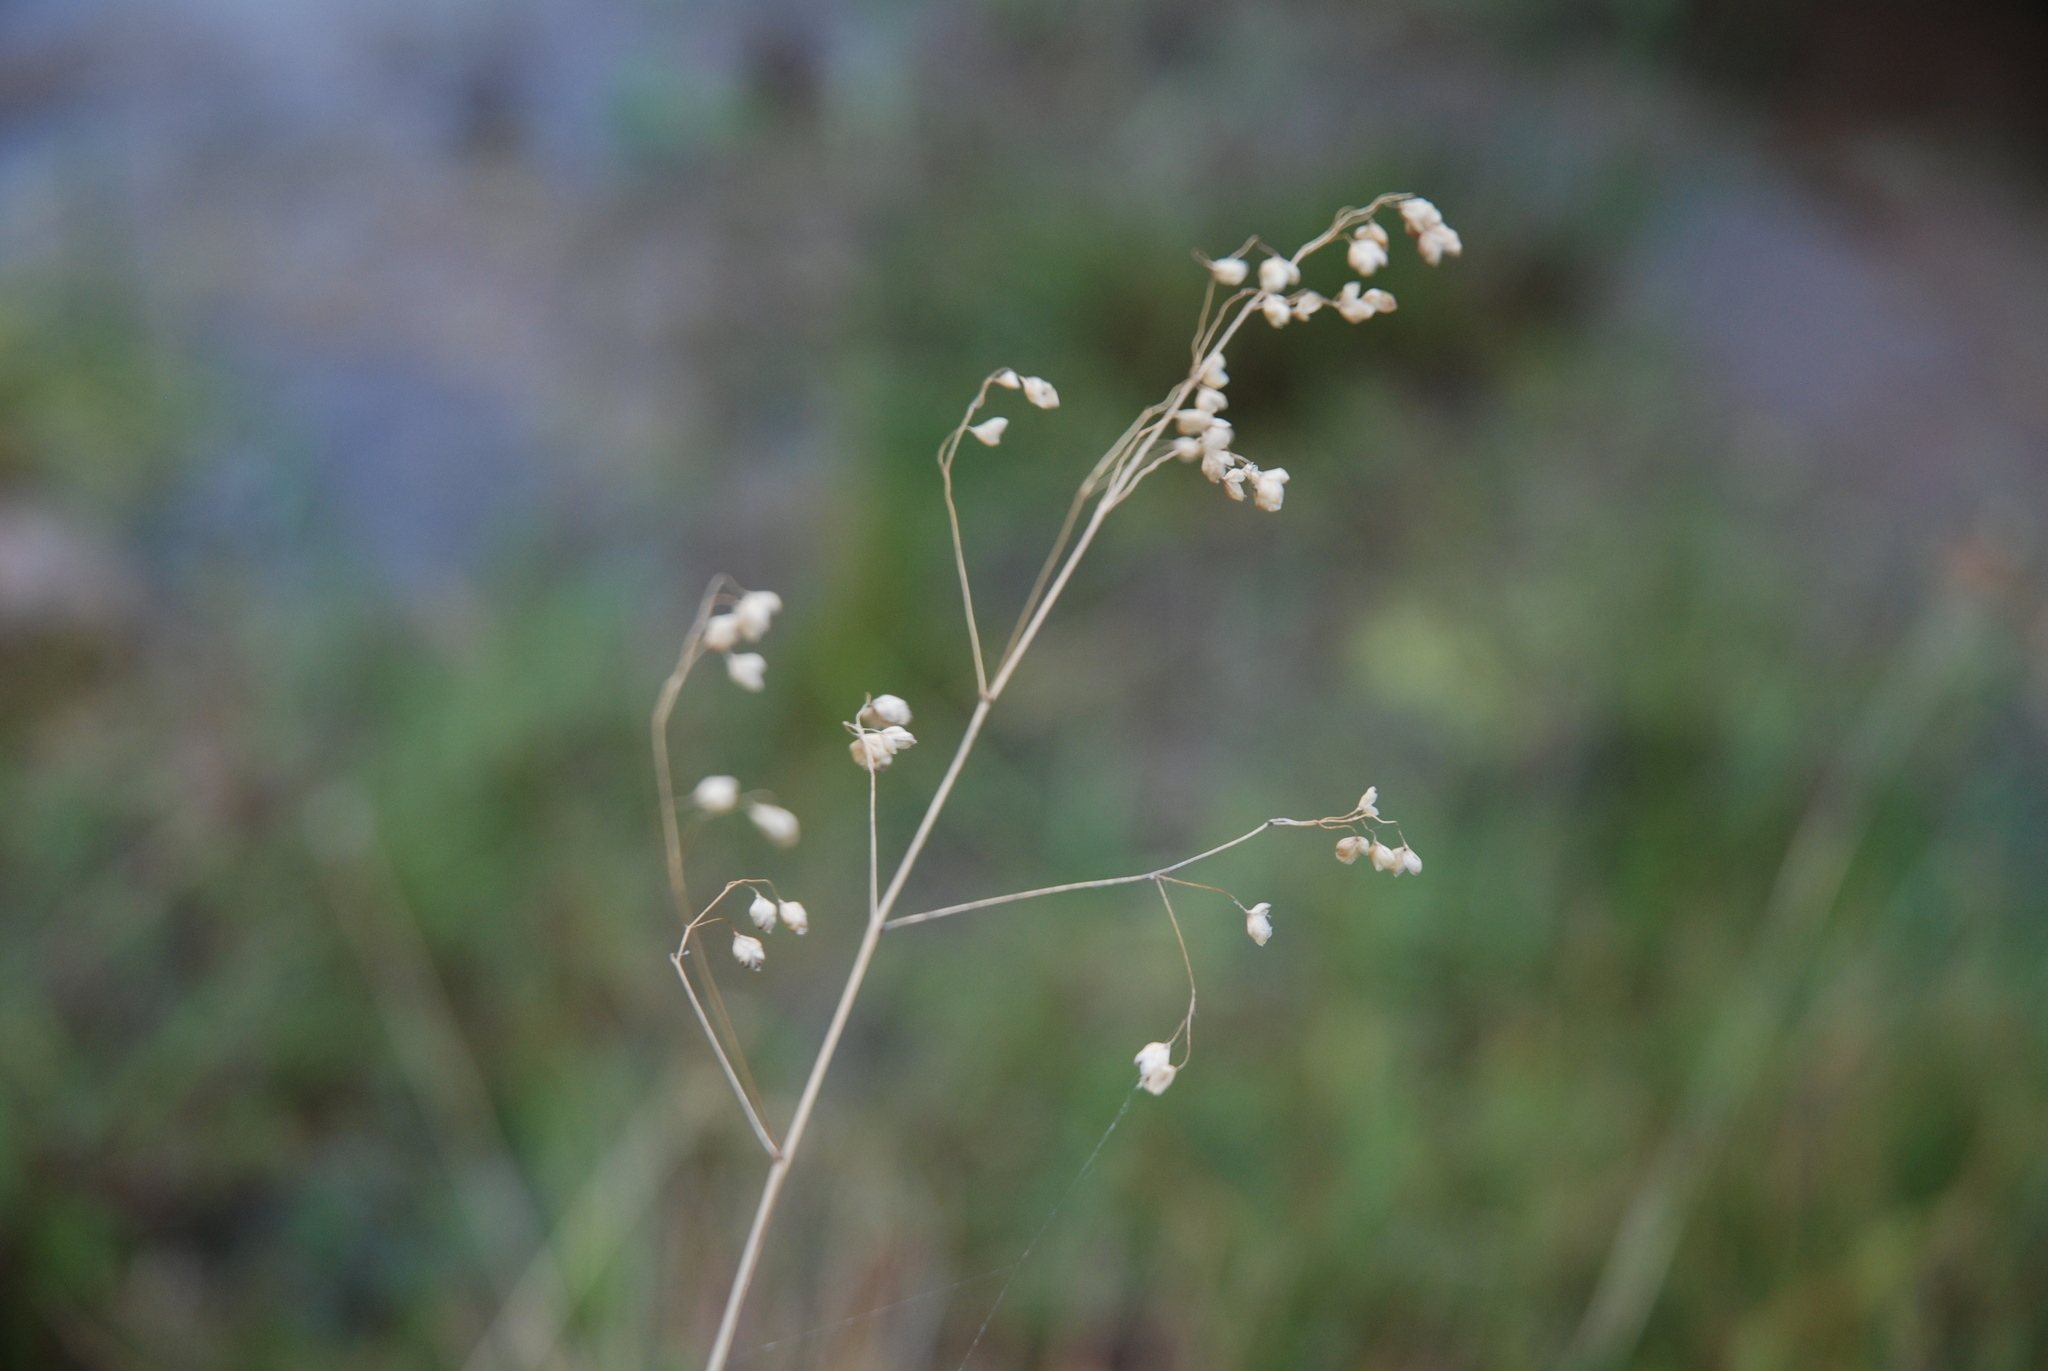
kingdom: Plantae
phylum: Tracheophyta
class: Liliopsida
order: Poales
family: Poaceae
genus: Briza
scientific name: Briza media
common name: Quaking grass
